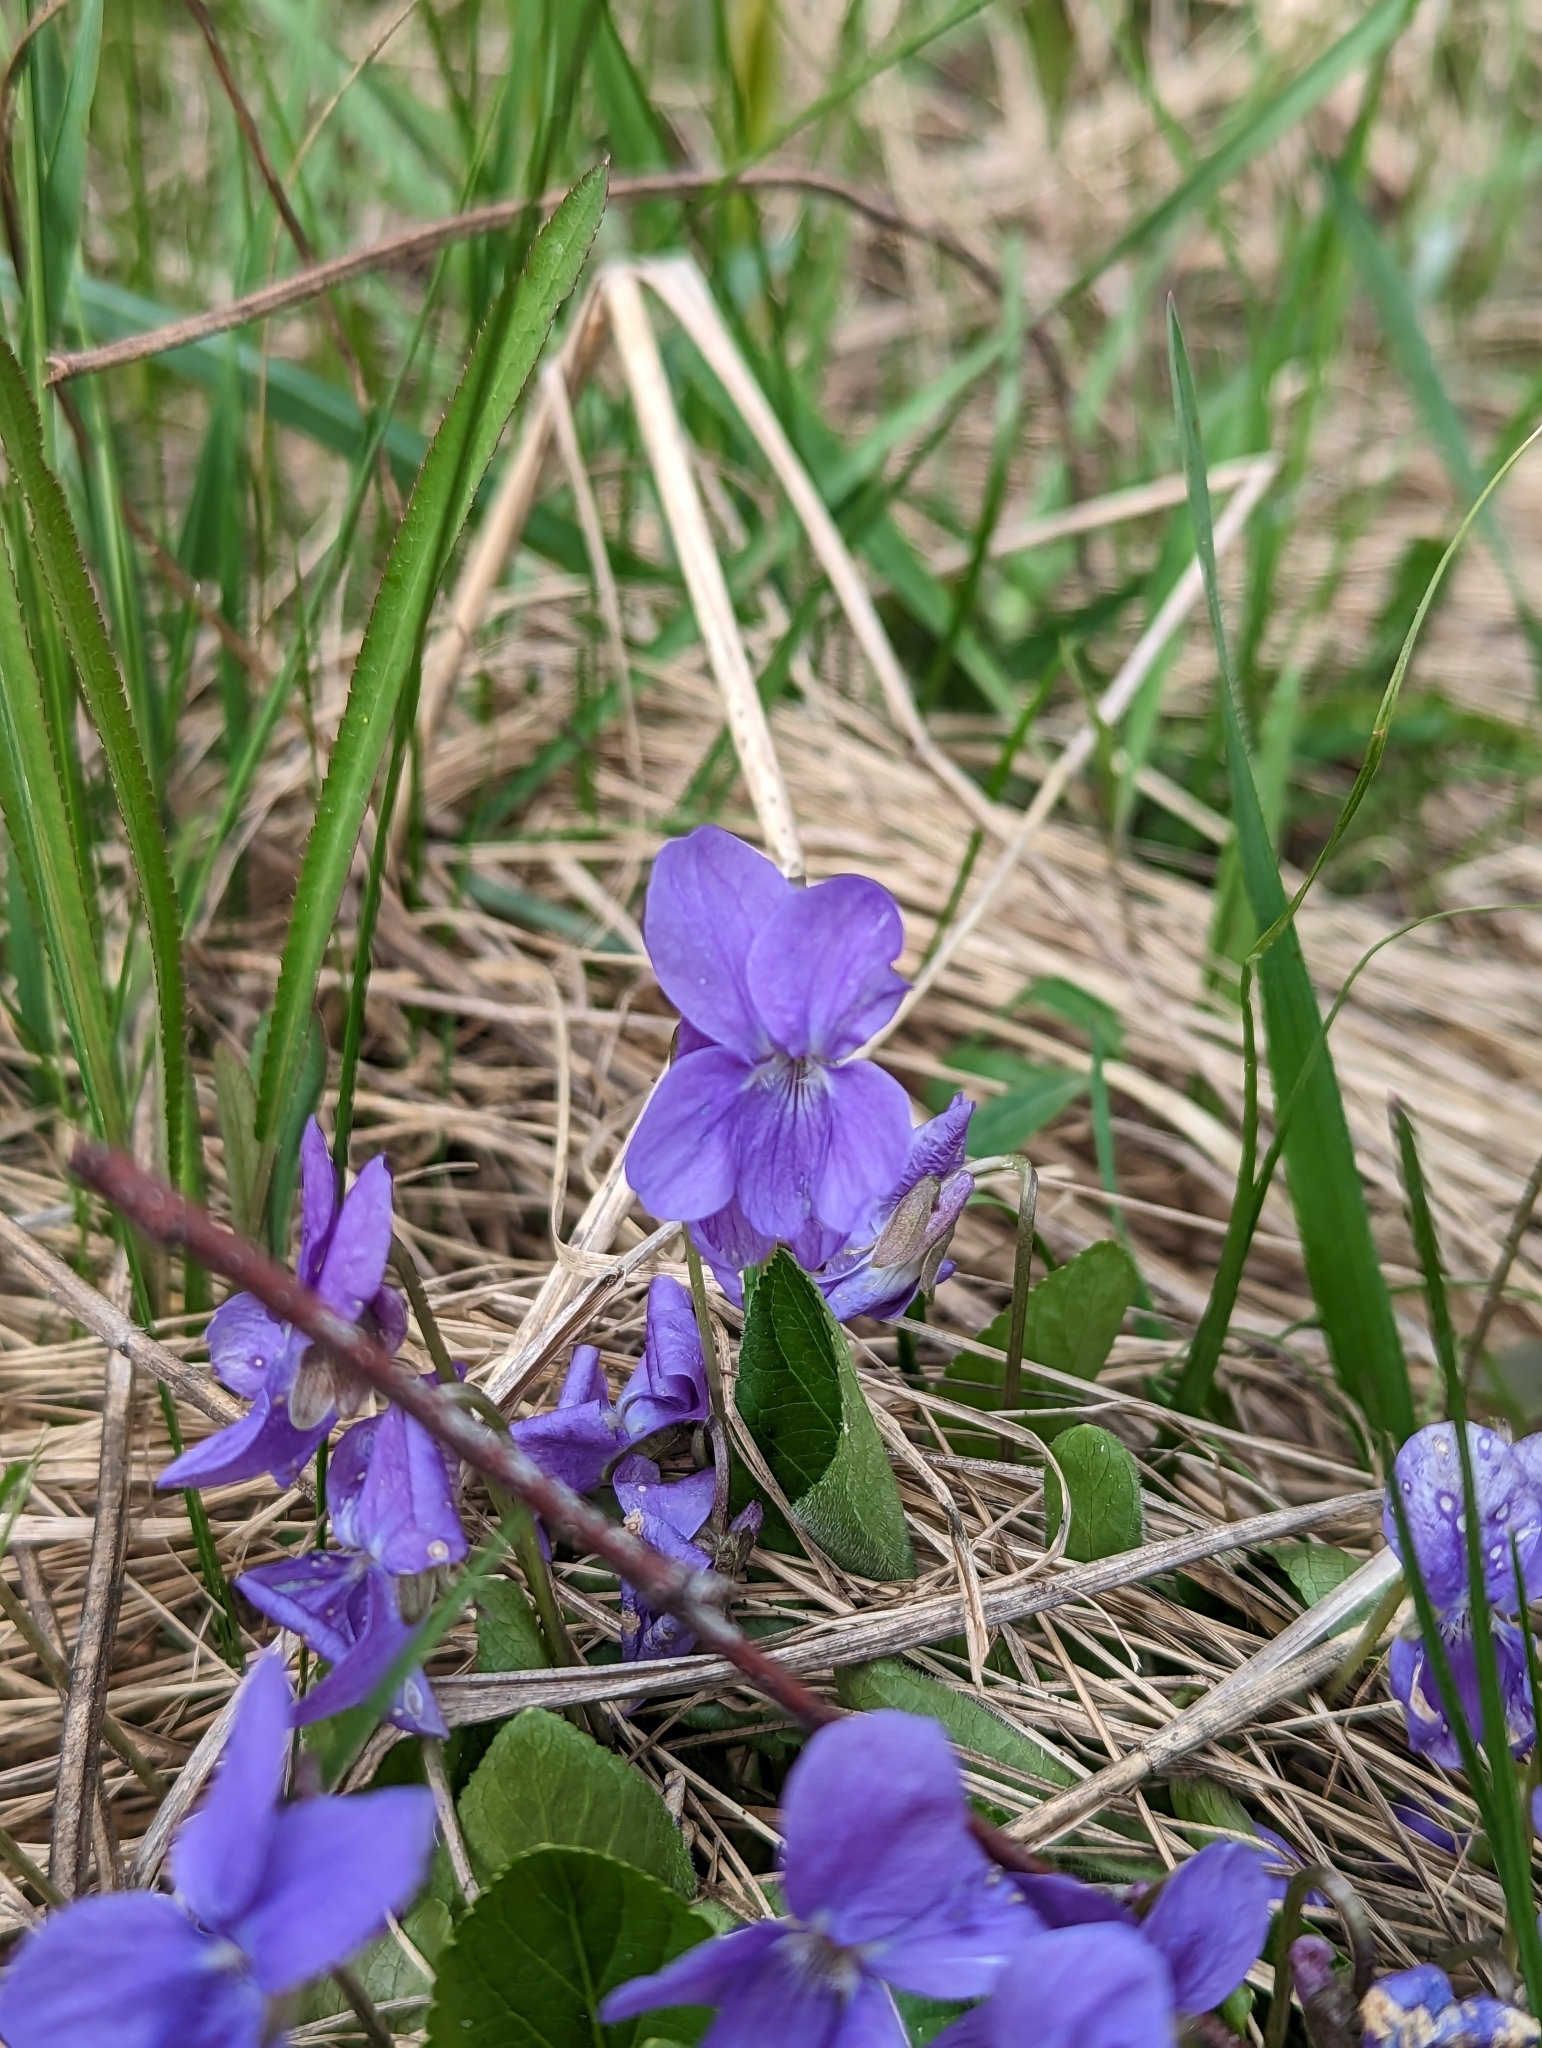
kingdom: Plantae
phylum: Tracheophyta
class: Magnoliopsida
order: Malpighiales
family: Violaceae
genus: Viola
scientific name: Viola hirta
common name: Hairy violet
